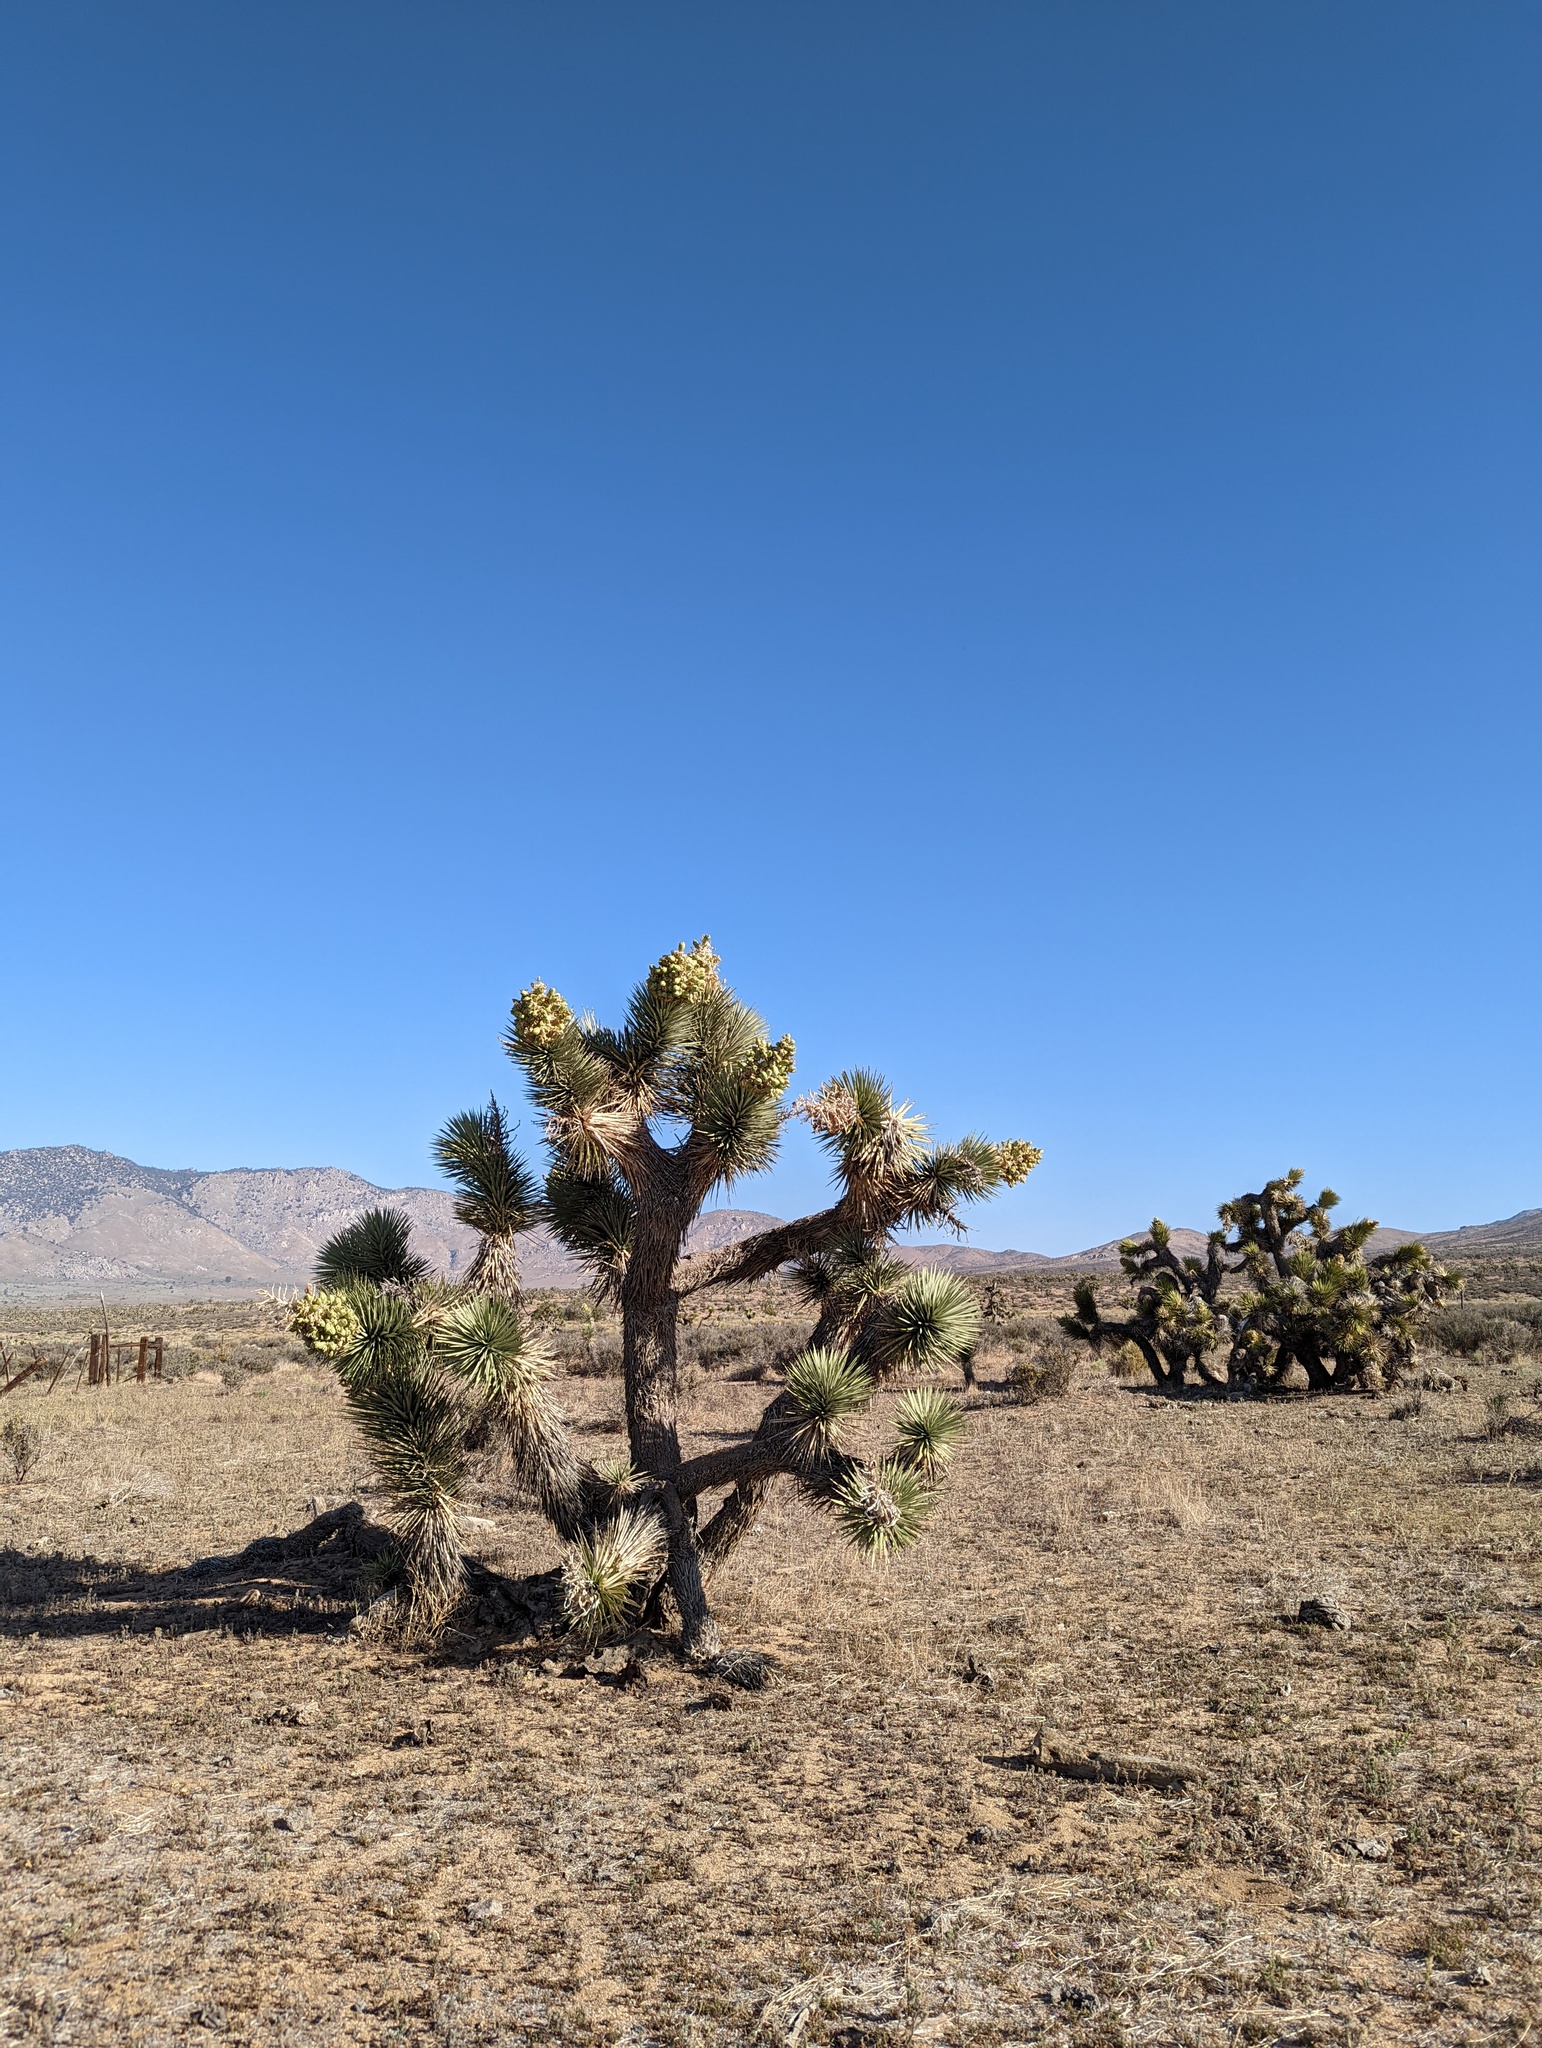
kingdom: Plantae
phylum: Tracheophyta
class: Liliopsida
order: Asparagales
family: Asparagaceae
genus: Yucca
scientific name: Yucca brevifolia
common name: Joshua tree
